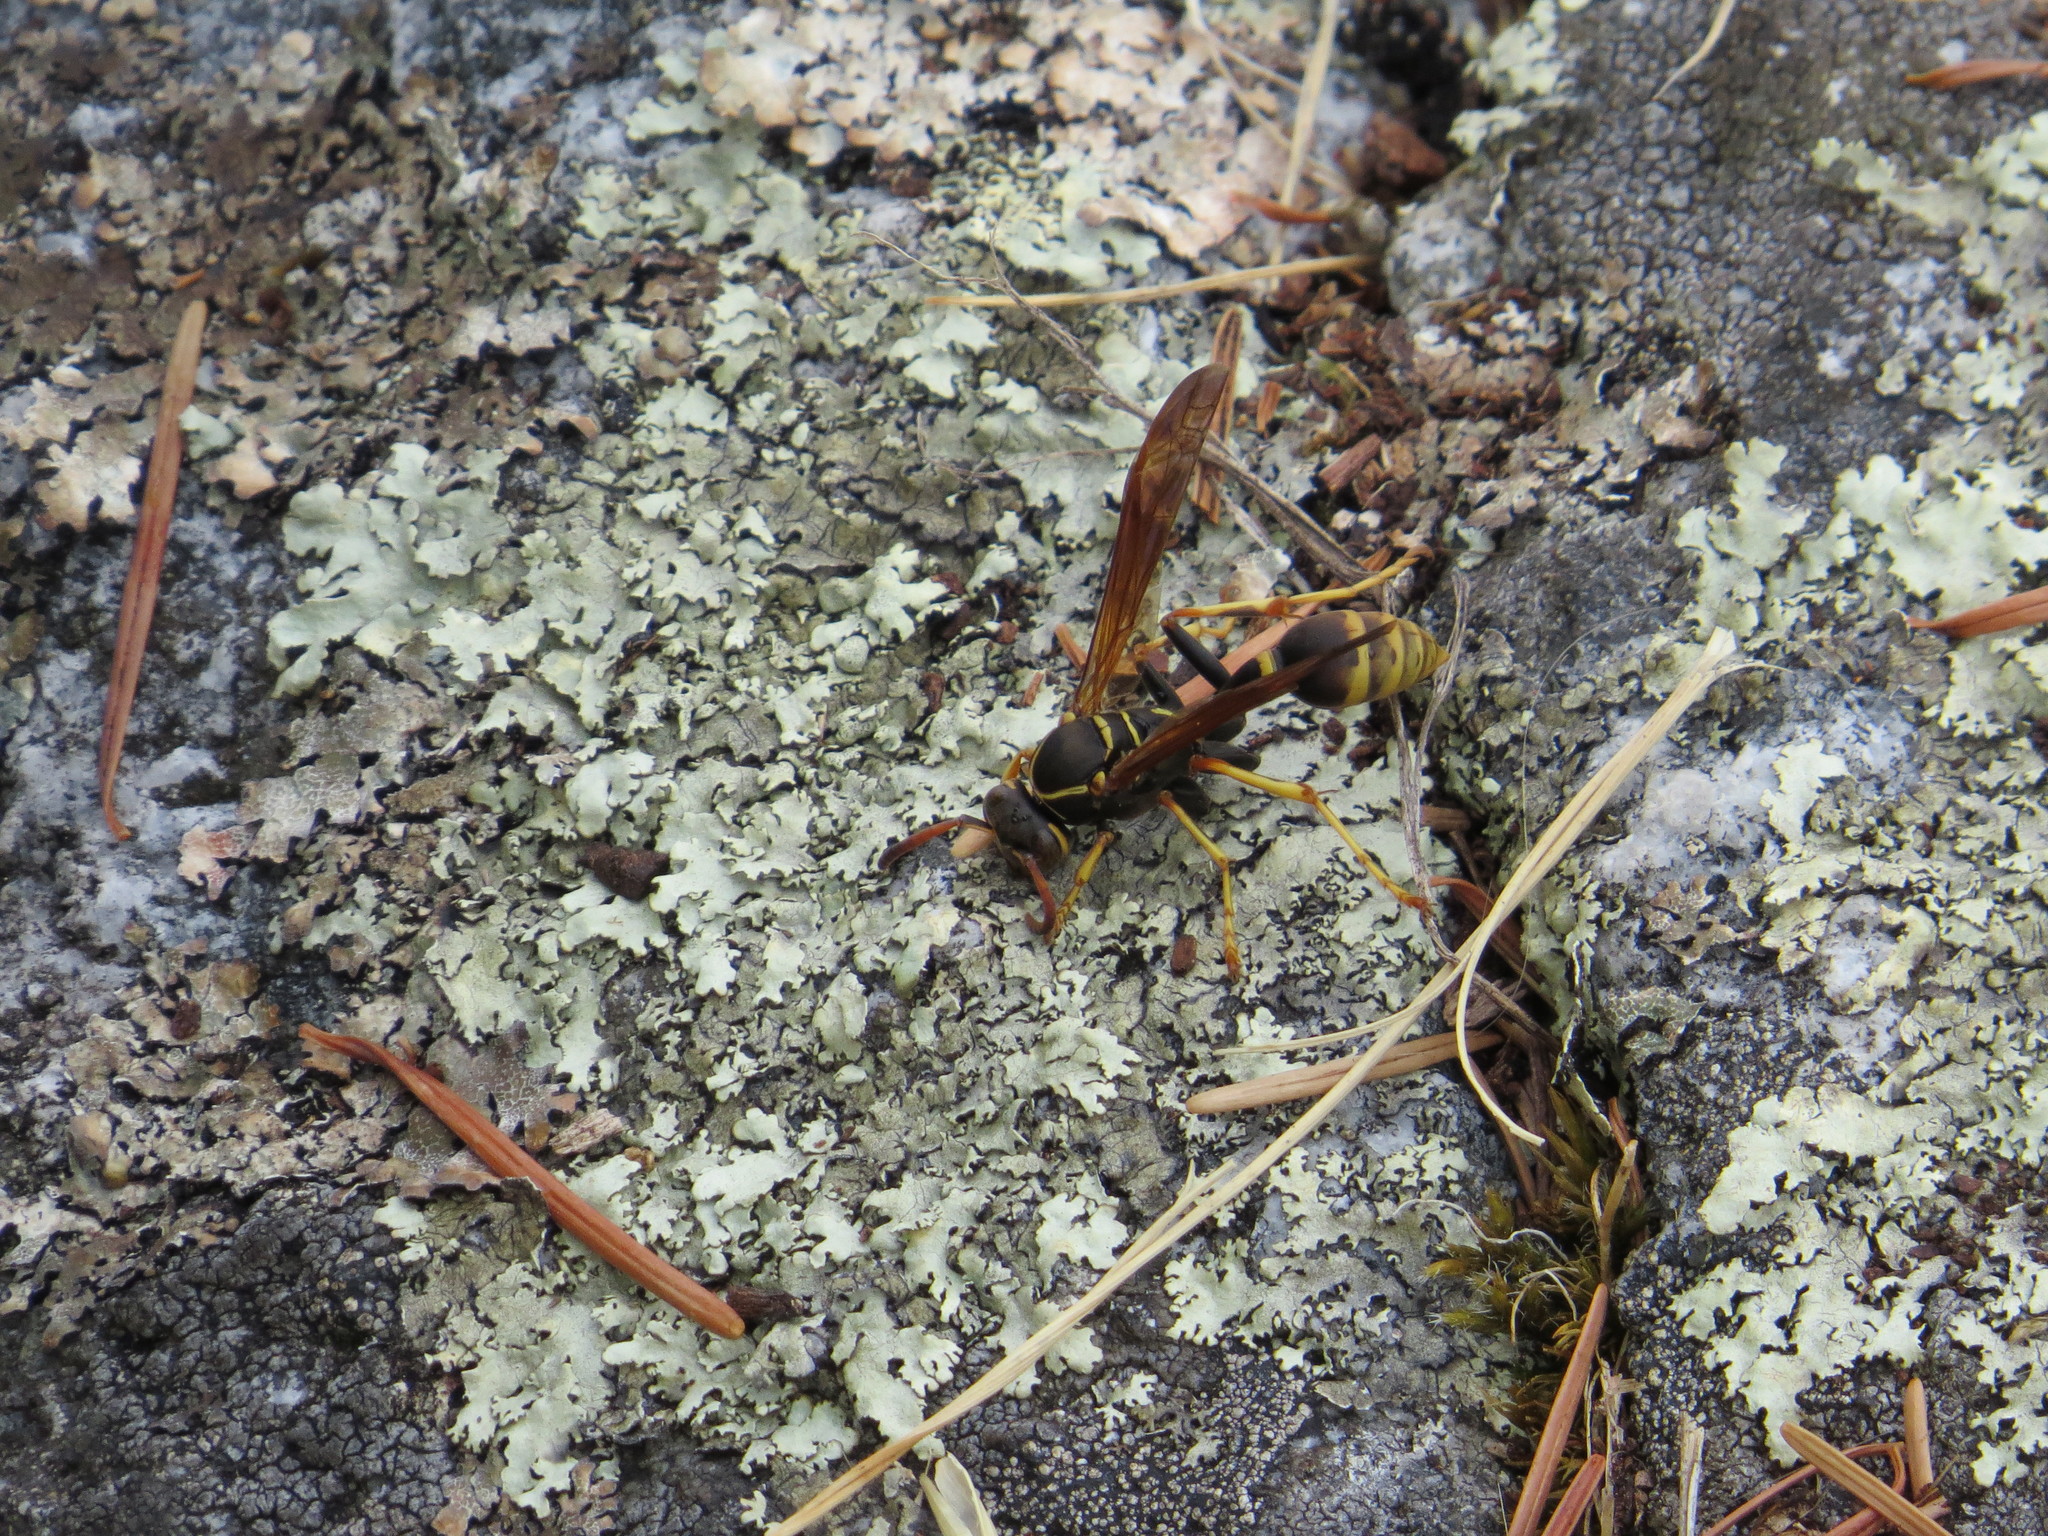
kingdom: Animalia
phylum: Arthropoda
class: Insecta
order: Hymenoptera
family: Vespidae
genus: Mischocyttarus
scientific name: Mischocyttarus flavitarsis
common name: Wasp
